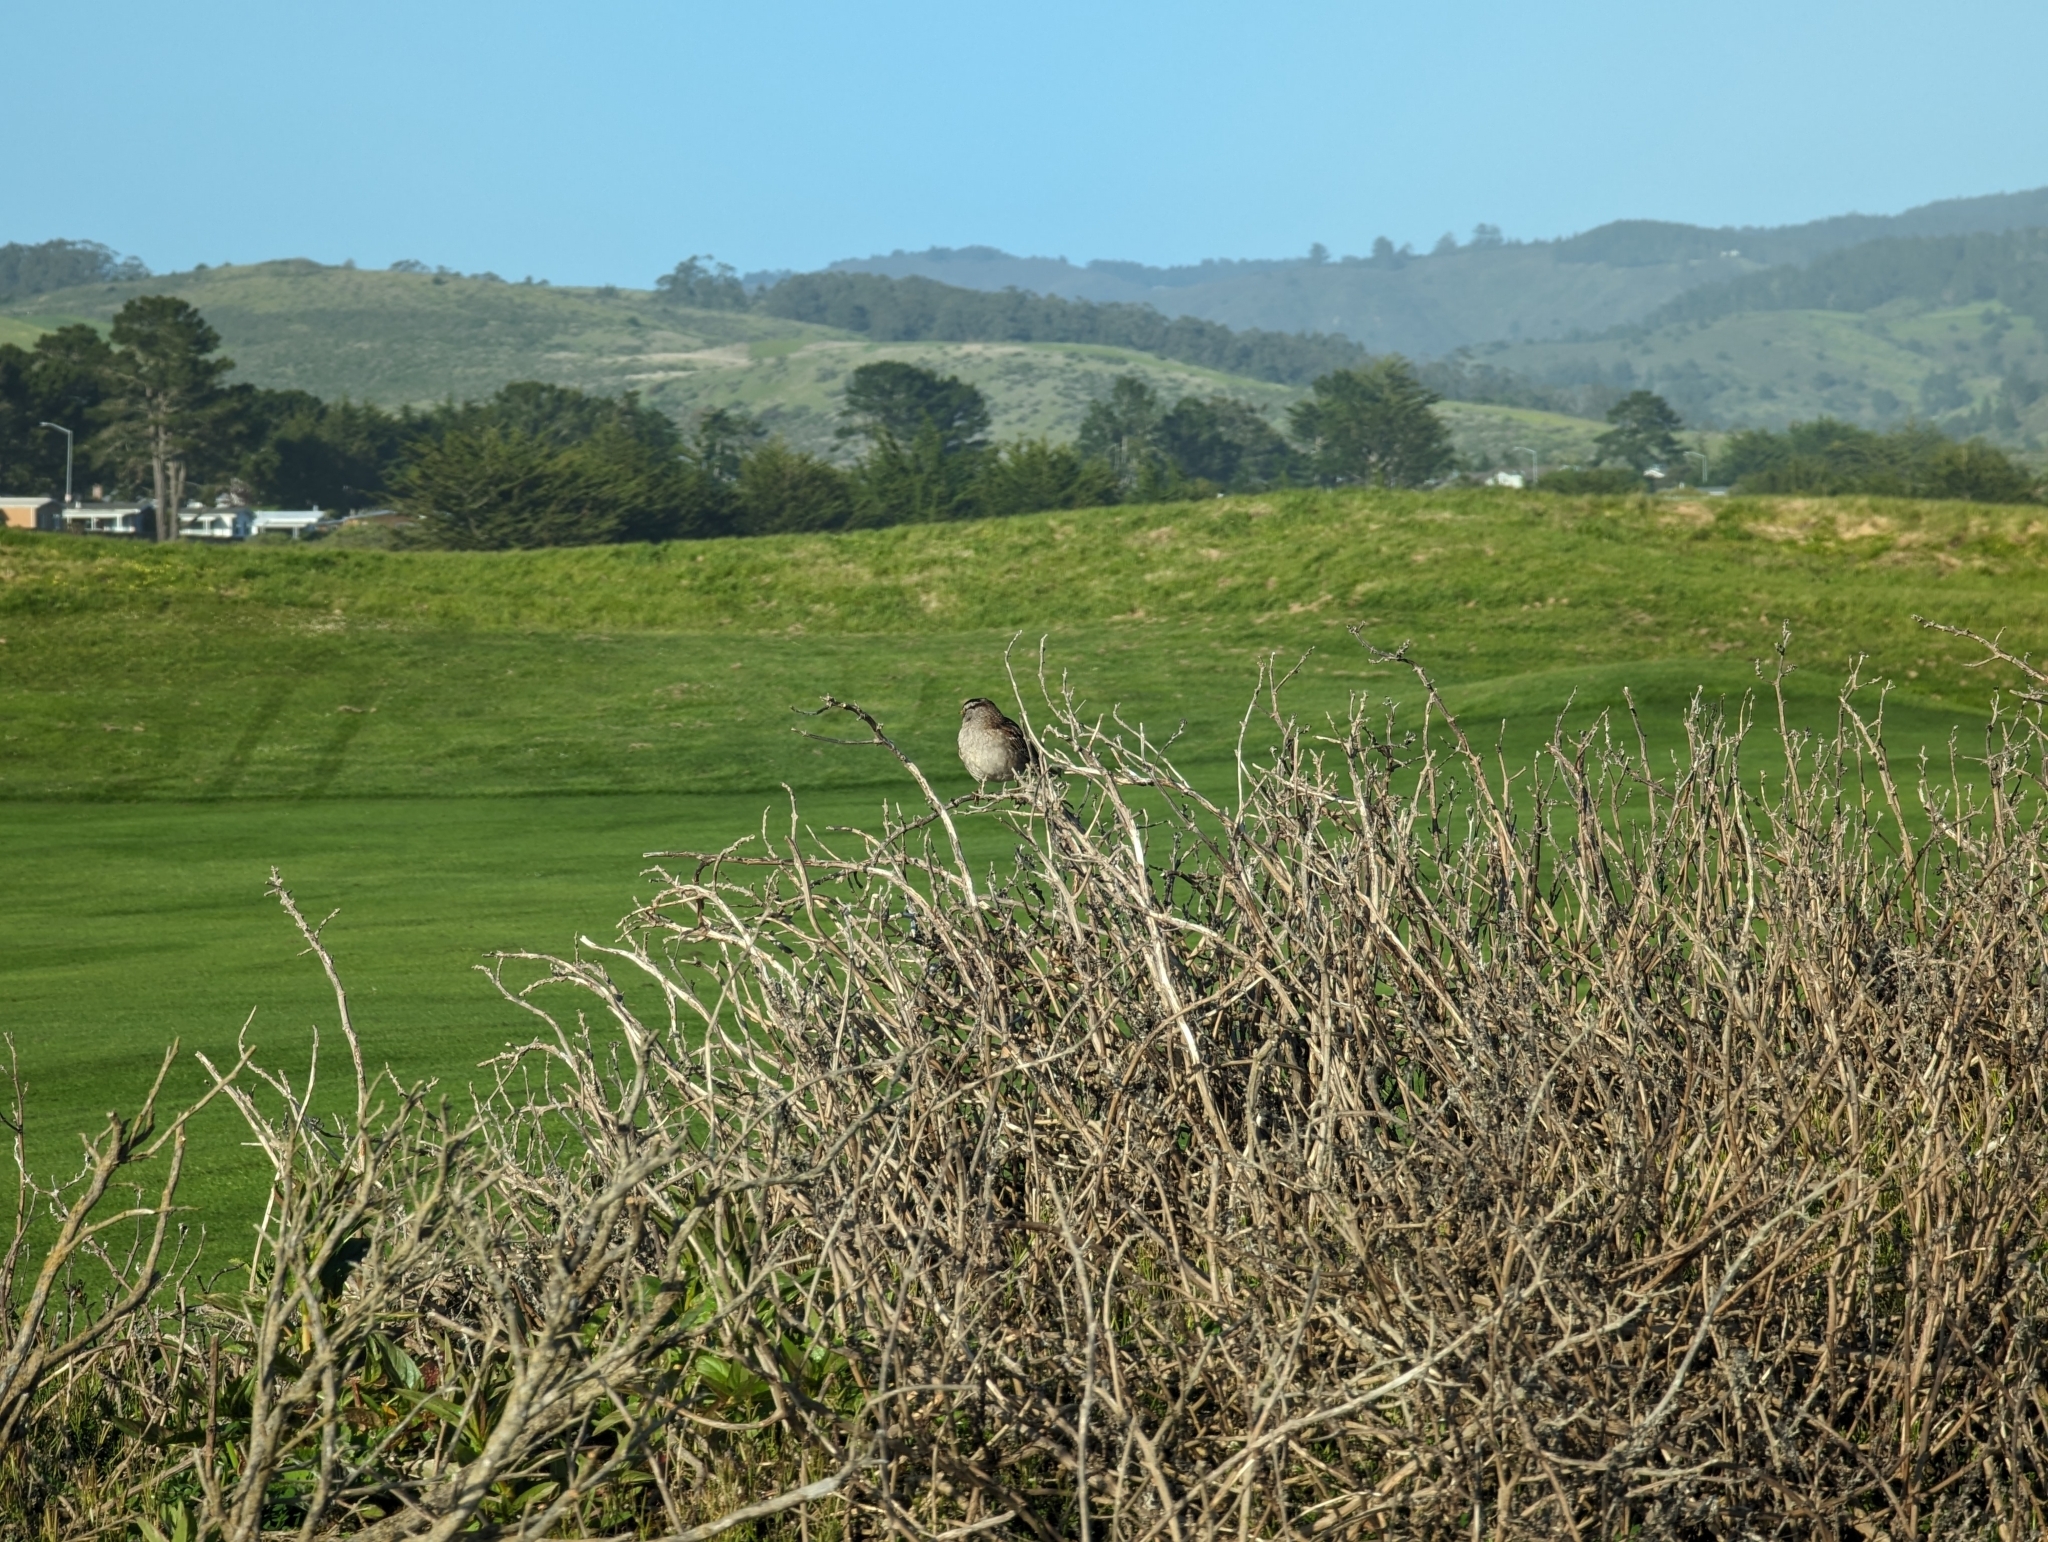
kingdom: Animalia
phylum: Chordata
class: Aves
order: Passeriformes
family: Passerellidae
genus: Zonotrichia
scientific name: Zonotrichia leucophrys
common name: White-crowned sparrow
